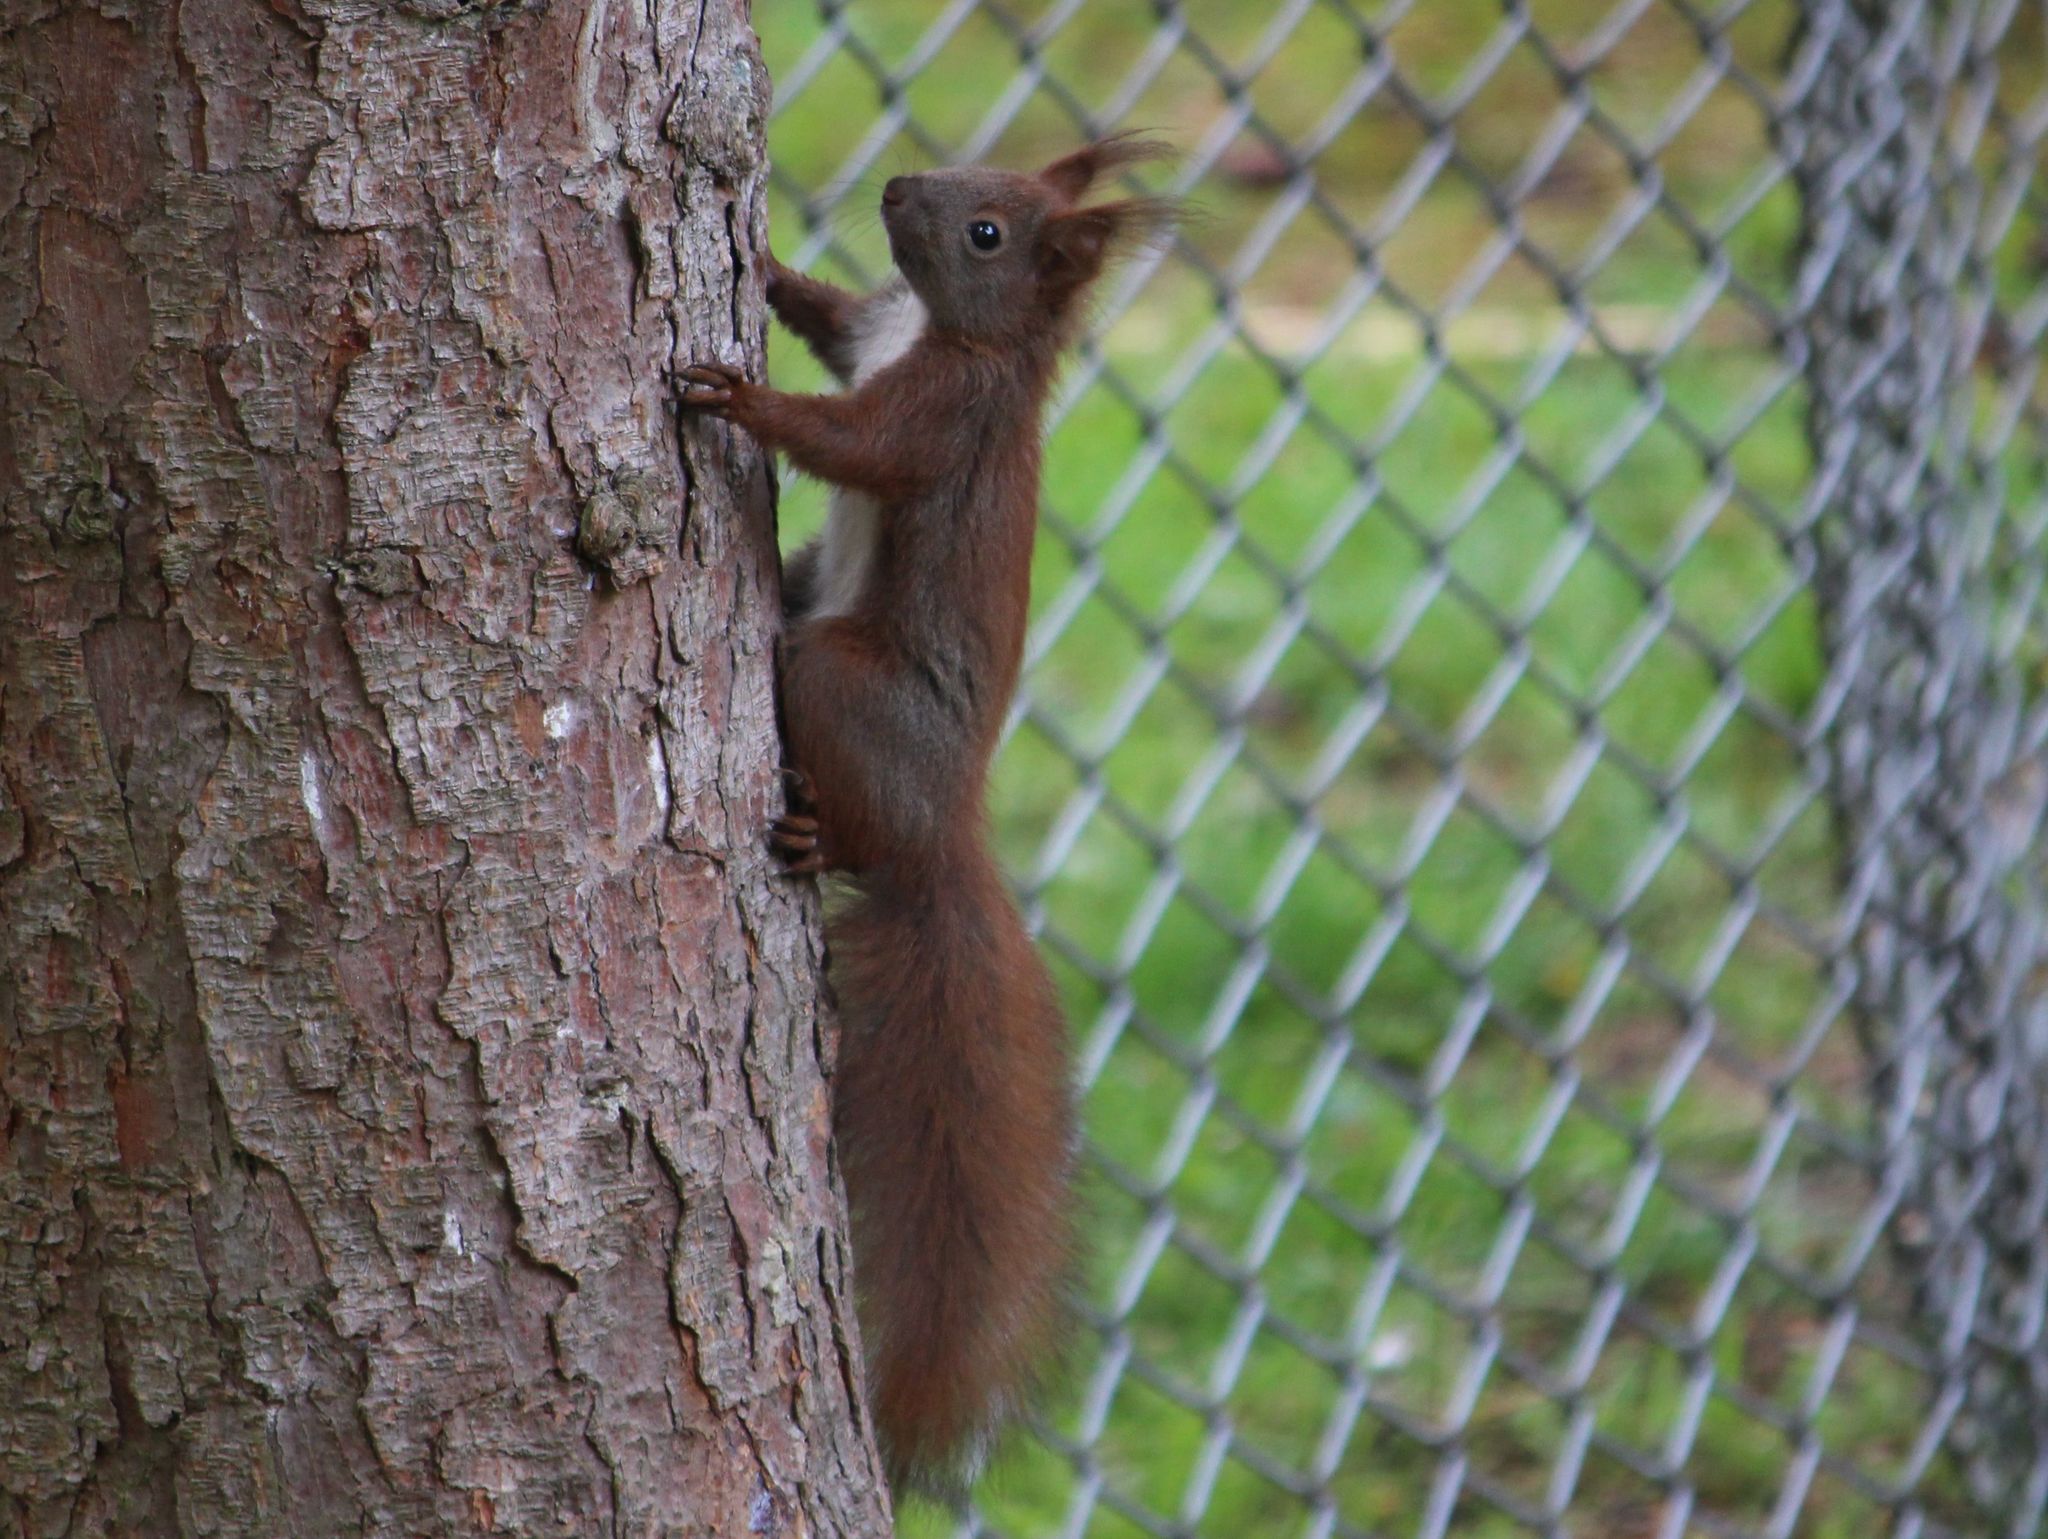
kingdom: Animalia
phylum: Chordata
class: Mammalia
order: Rodentia
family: Sciuridae
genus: Sciurus
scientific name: Sciurus vulgaris
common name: Eurasian red squirrel
